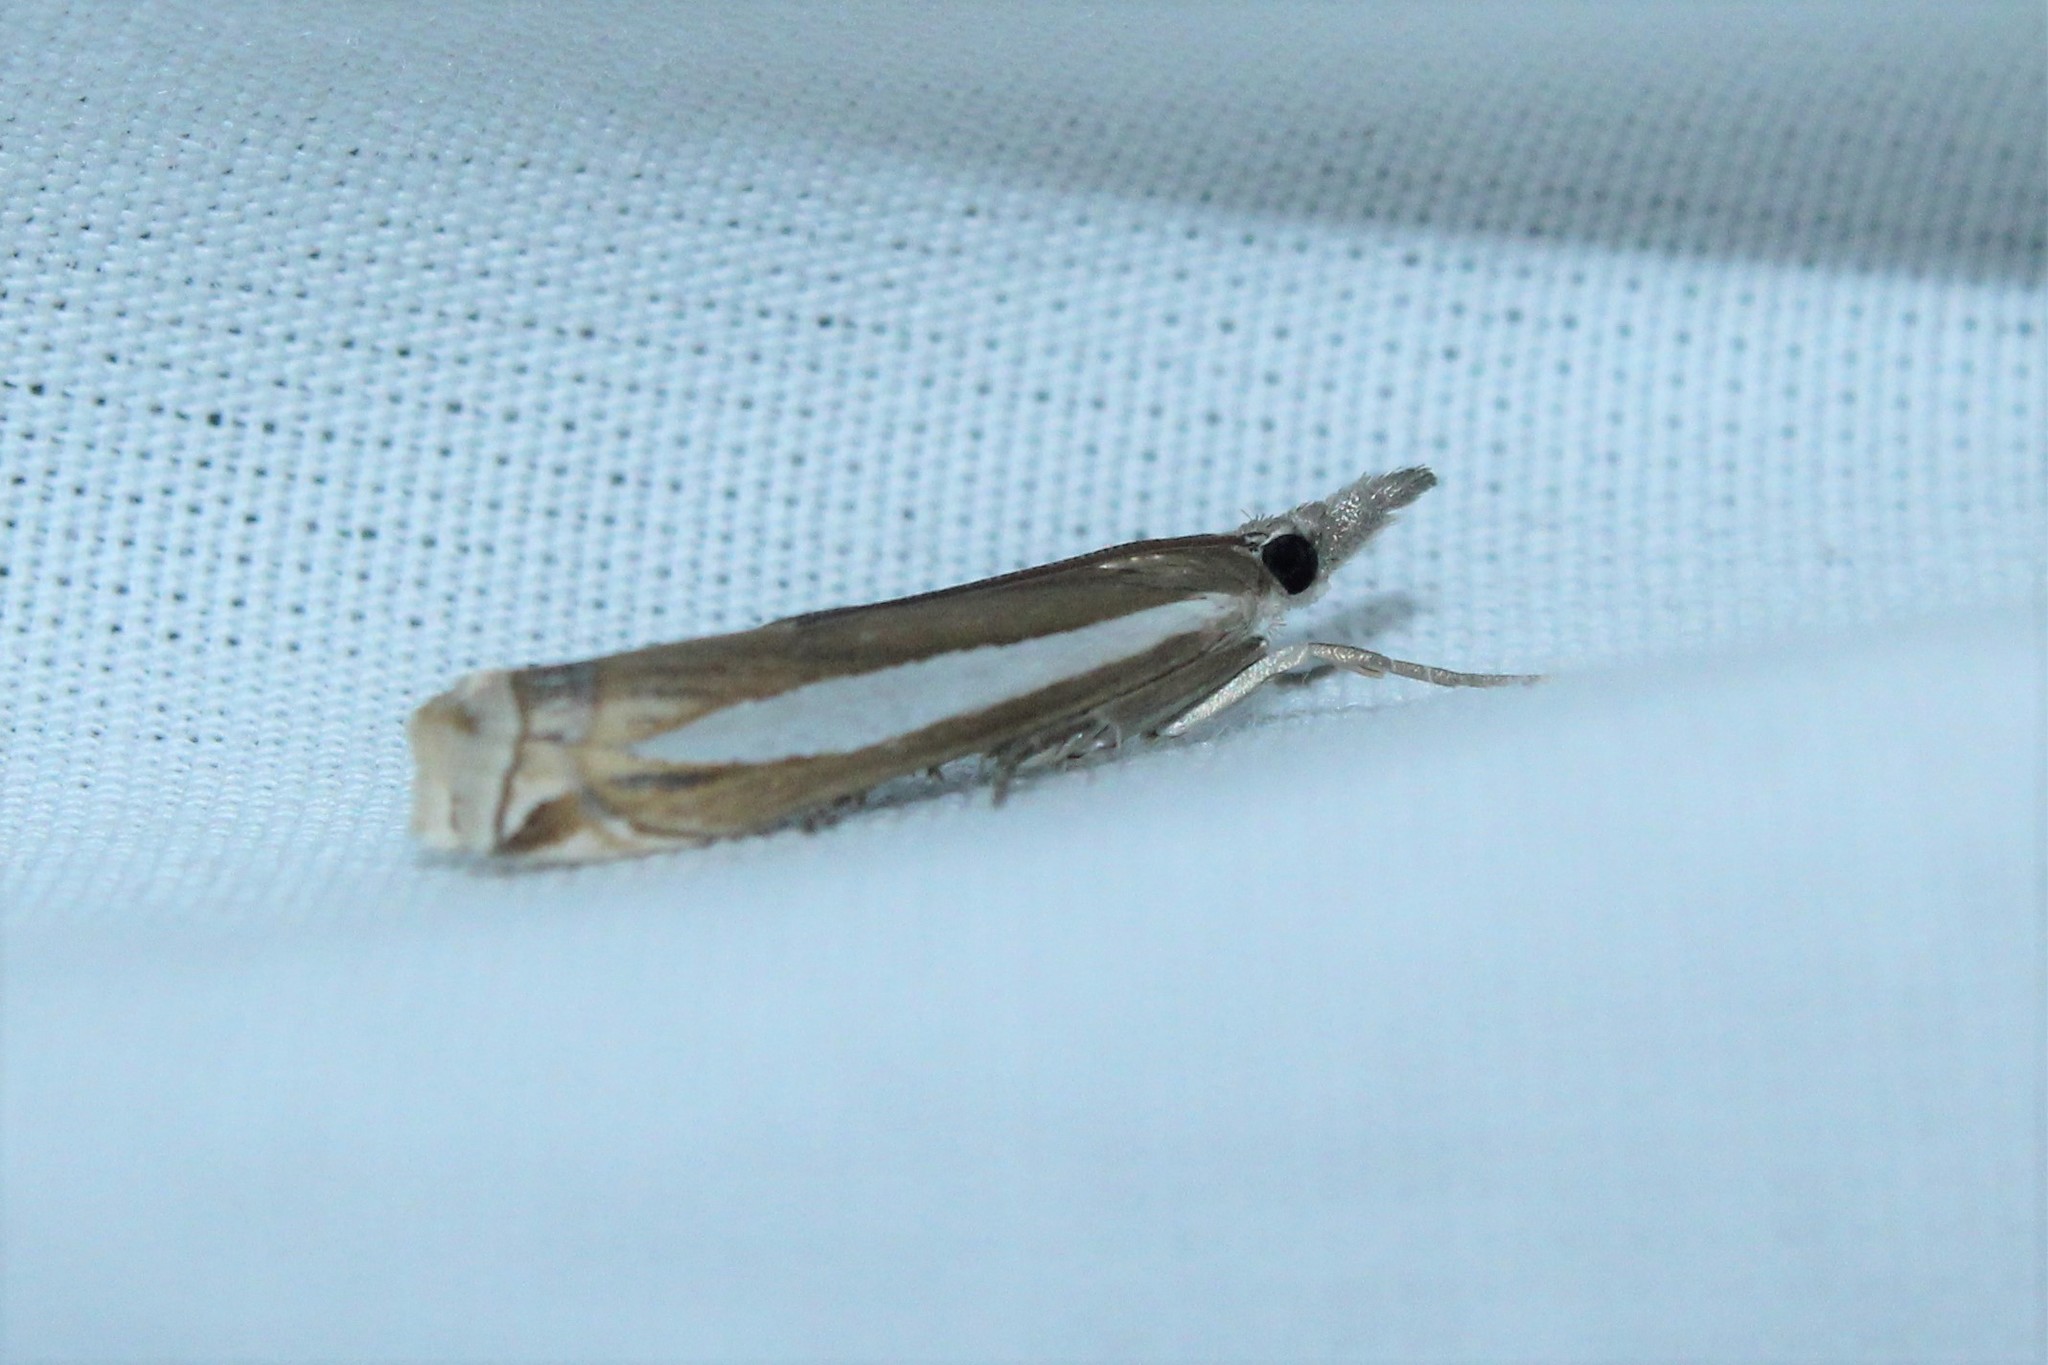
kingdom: Animalia
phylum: Arthropoda
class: Insecta
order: Lepidoptera
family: Crambidae
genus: Crambus
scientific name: Crambus praefectellus
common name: Common grass-veneer
